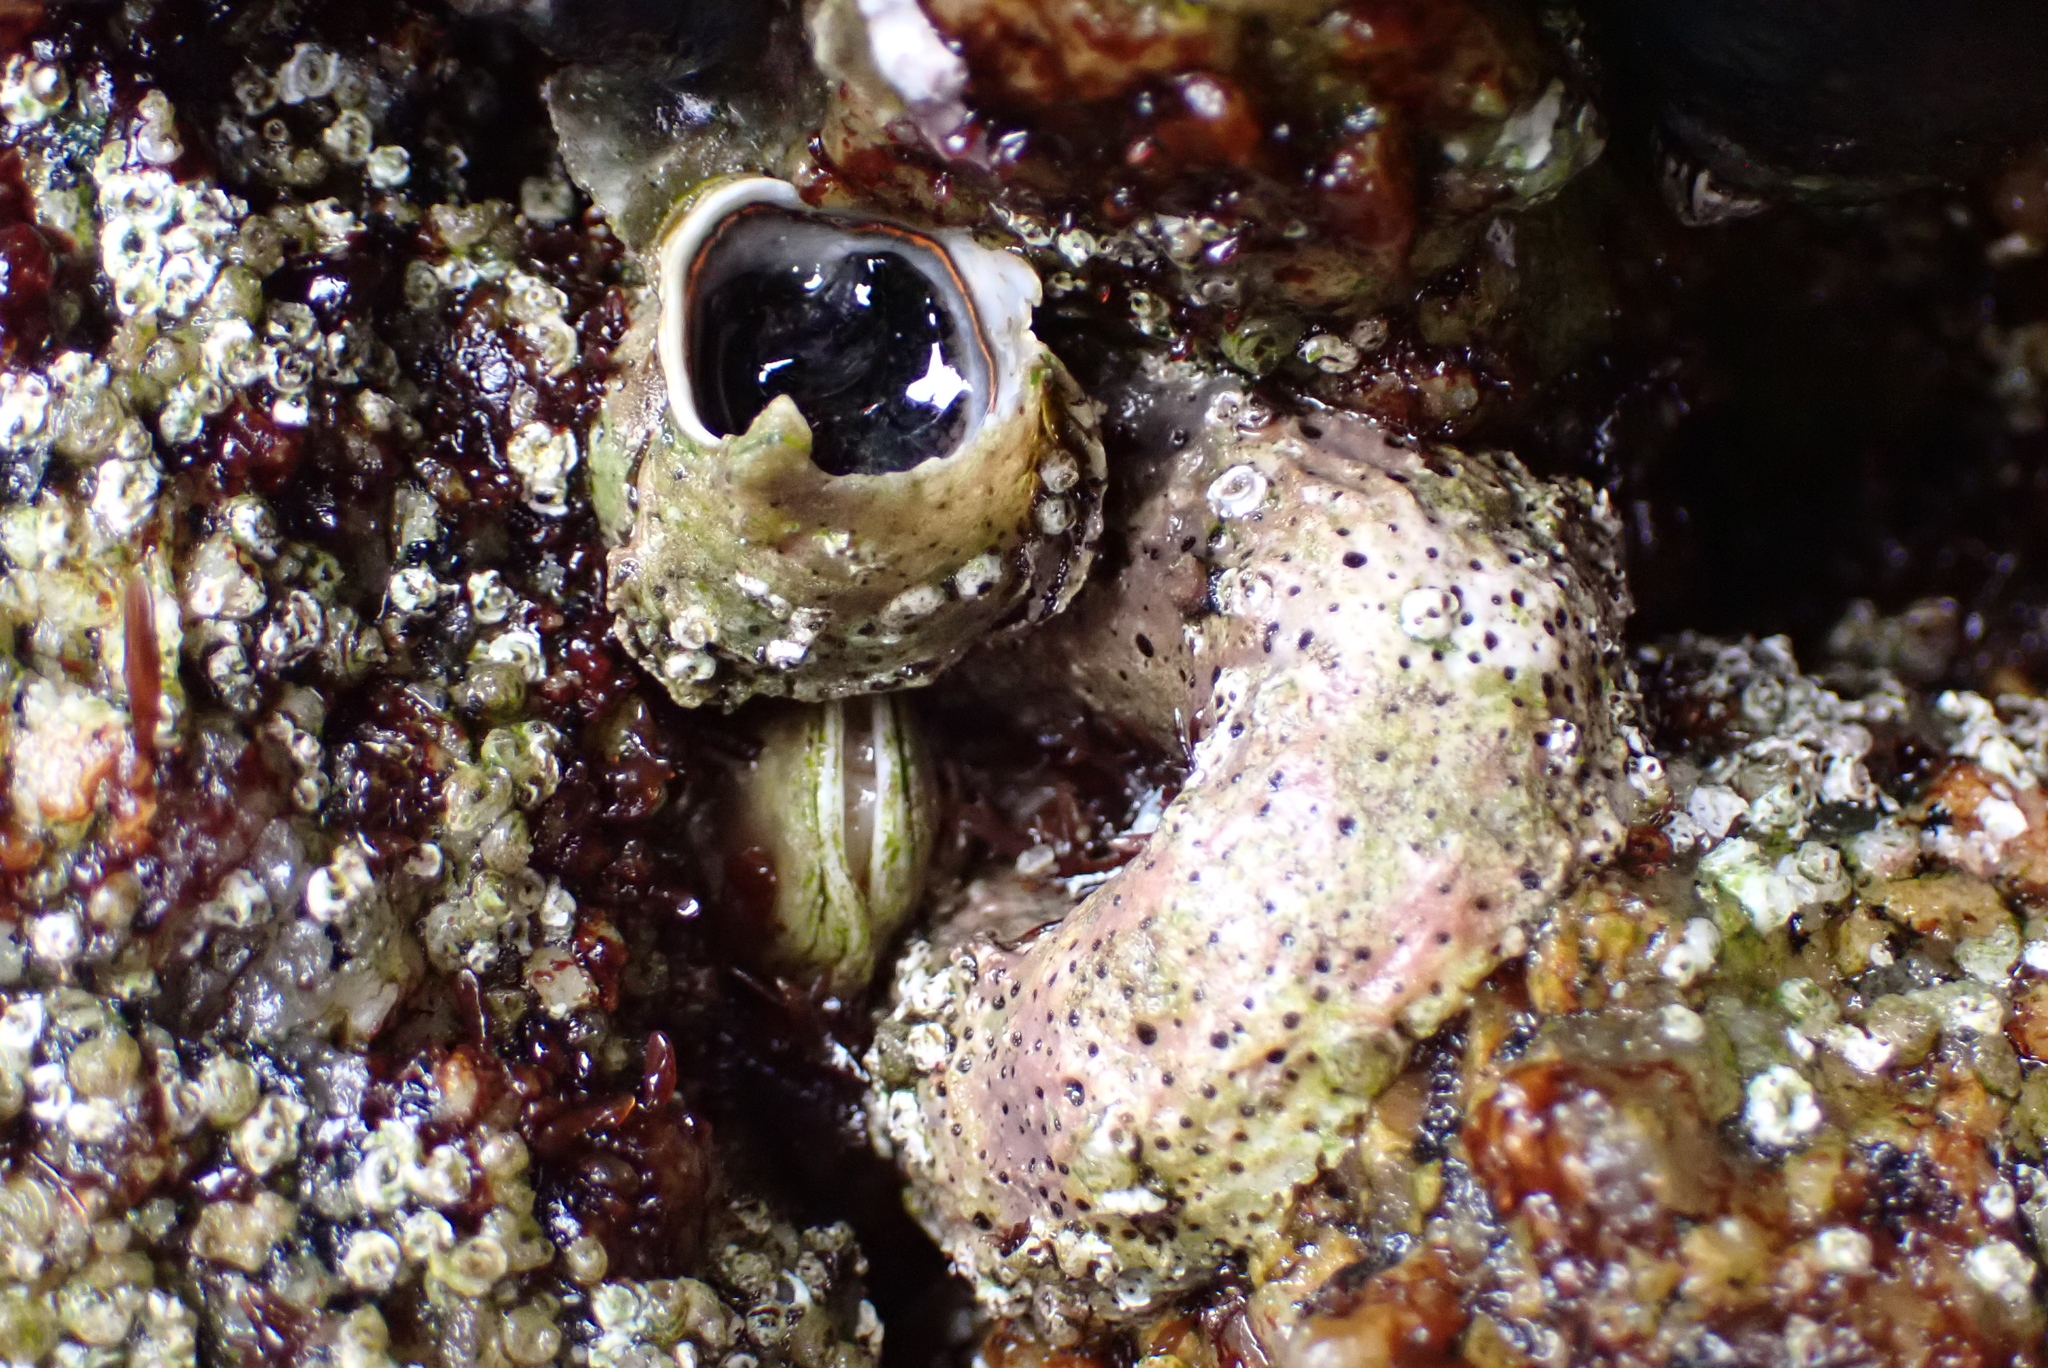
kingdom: Animalia
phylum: Mollusca
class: Gastropoda
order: Littorinimorpha
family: Vermetidae
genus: Thylacodes
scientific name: Thylacodes squamigerus
